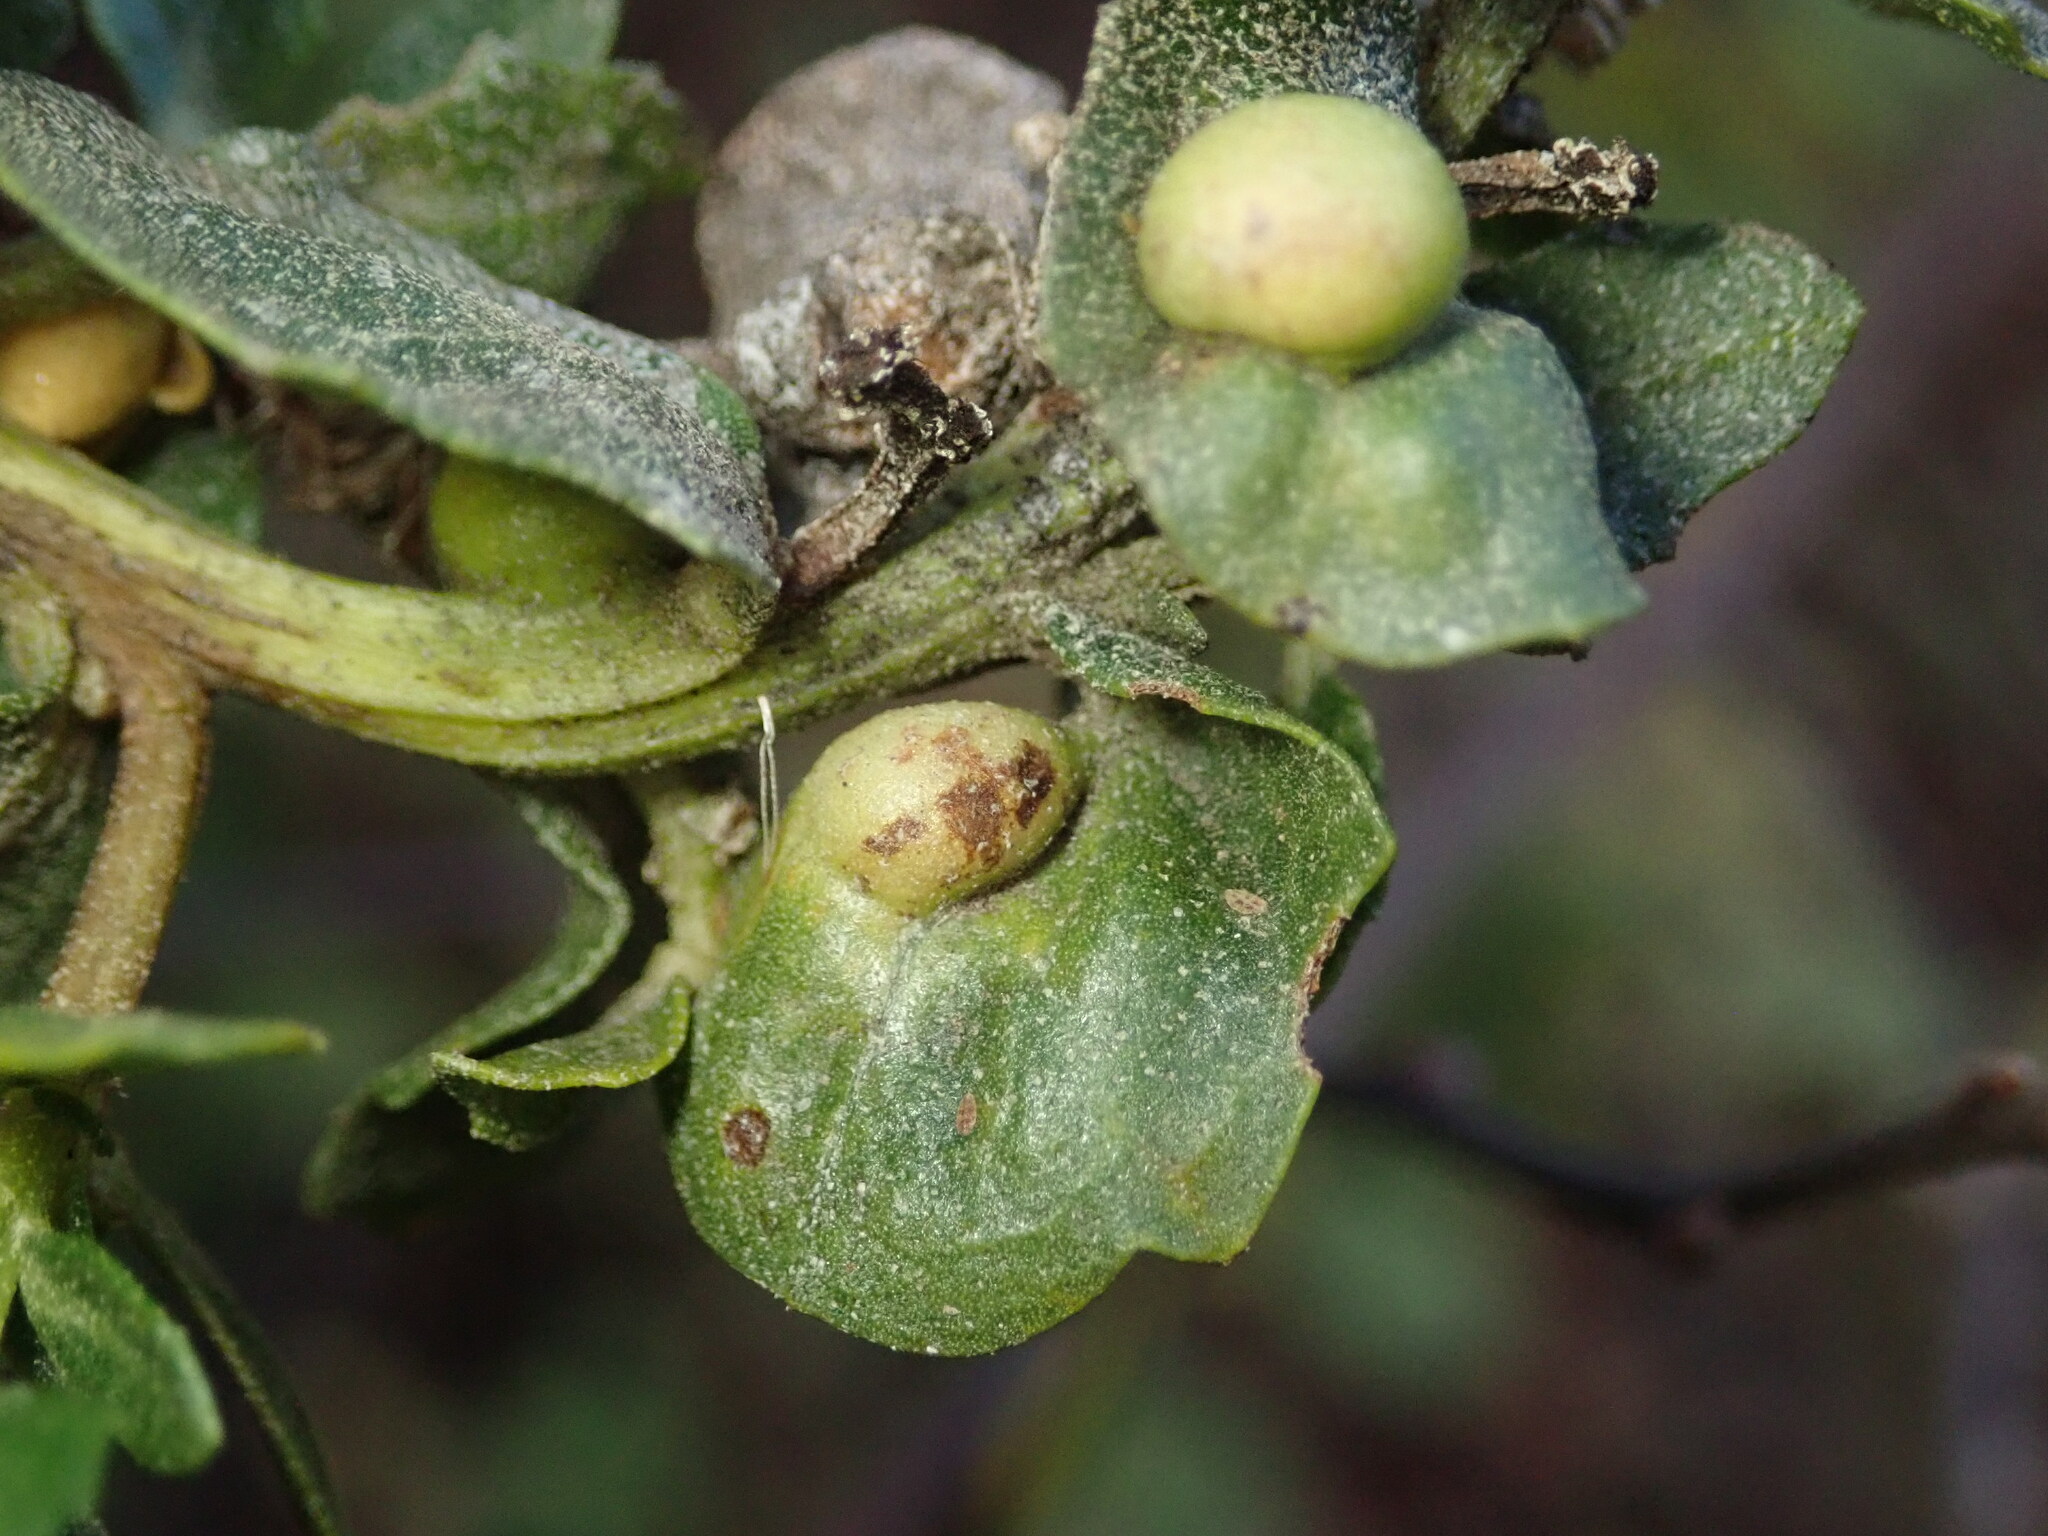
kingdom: Animalia
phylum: Arthropoda
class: Insecta
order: Diptera
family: Cecidomyiidae
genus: Rhopalomyia
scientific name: Rhopalomyia
